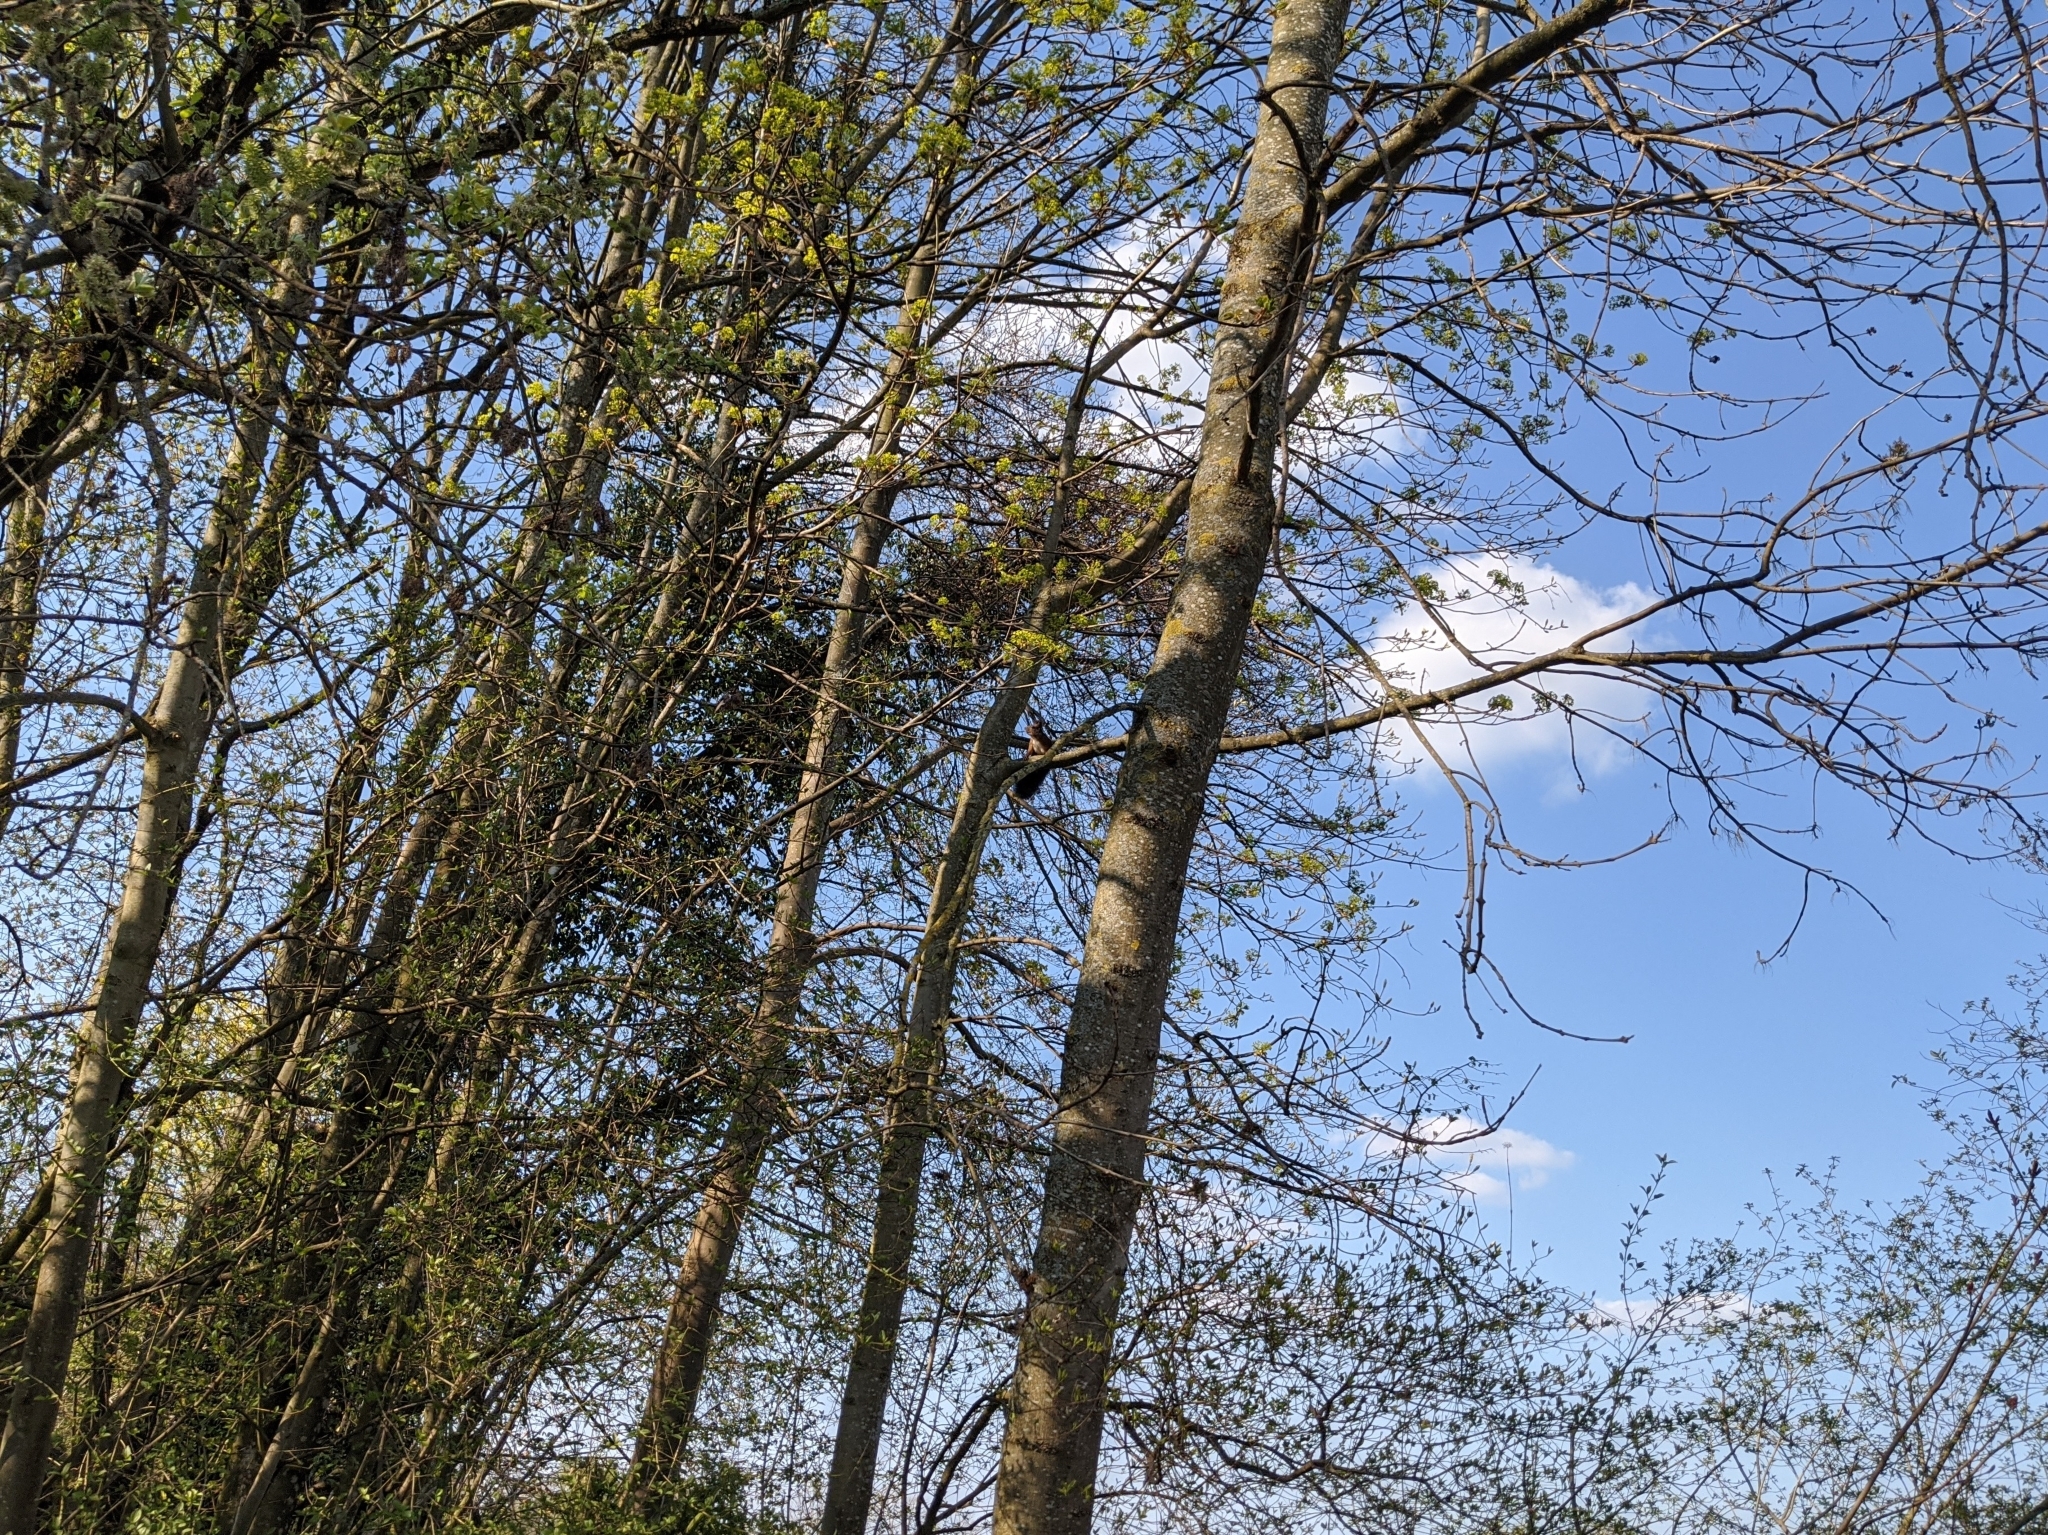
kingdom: Animalia
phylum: Chordata
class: Mammalia
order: Rodentia
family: Sciuridae
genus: Sciurus
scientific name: Sciurus vulgaris
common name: Eurasian red squirrel
